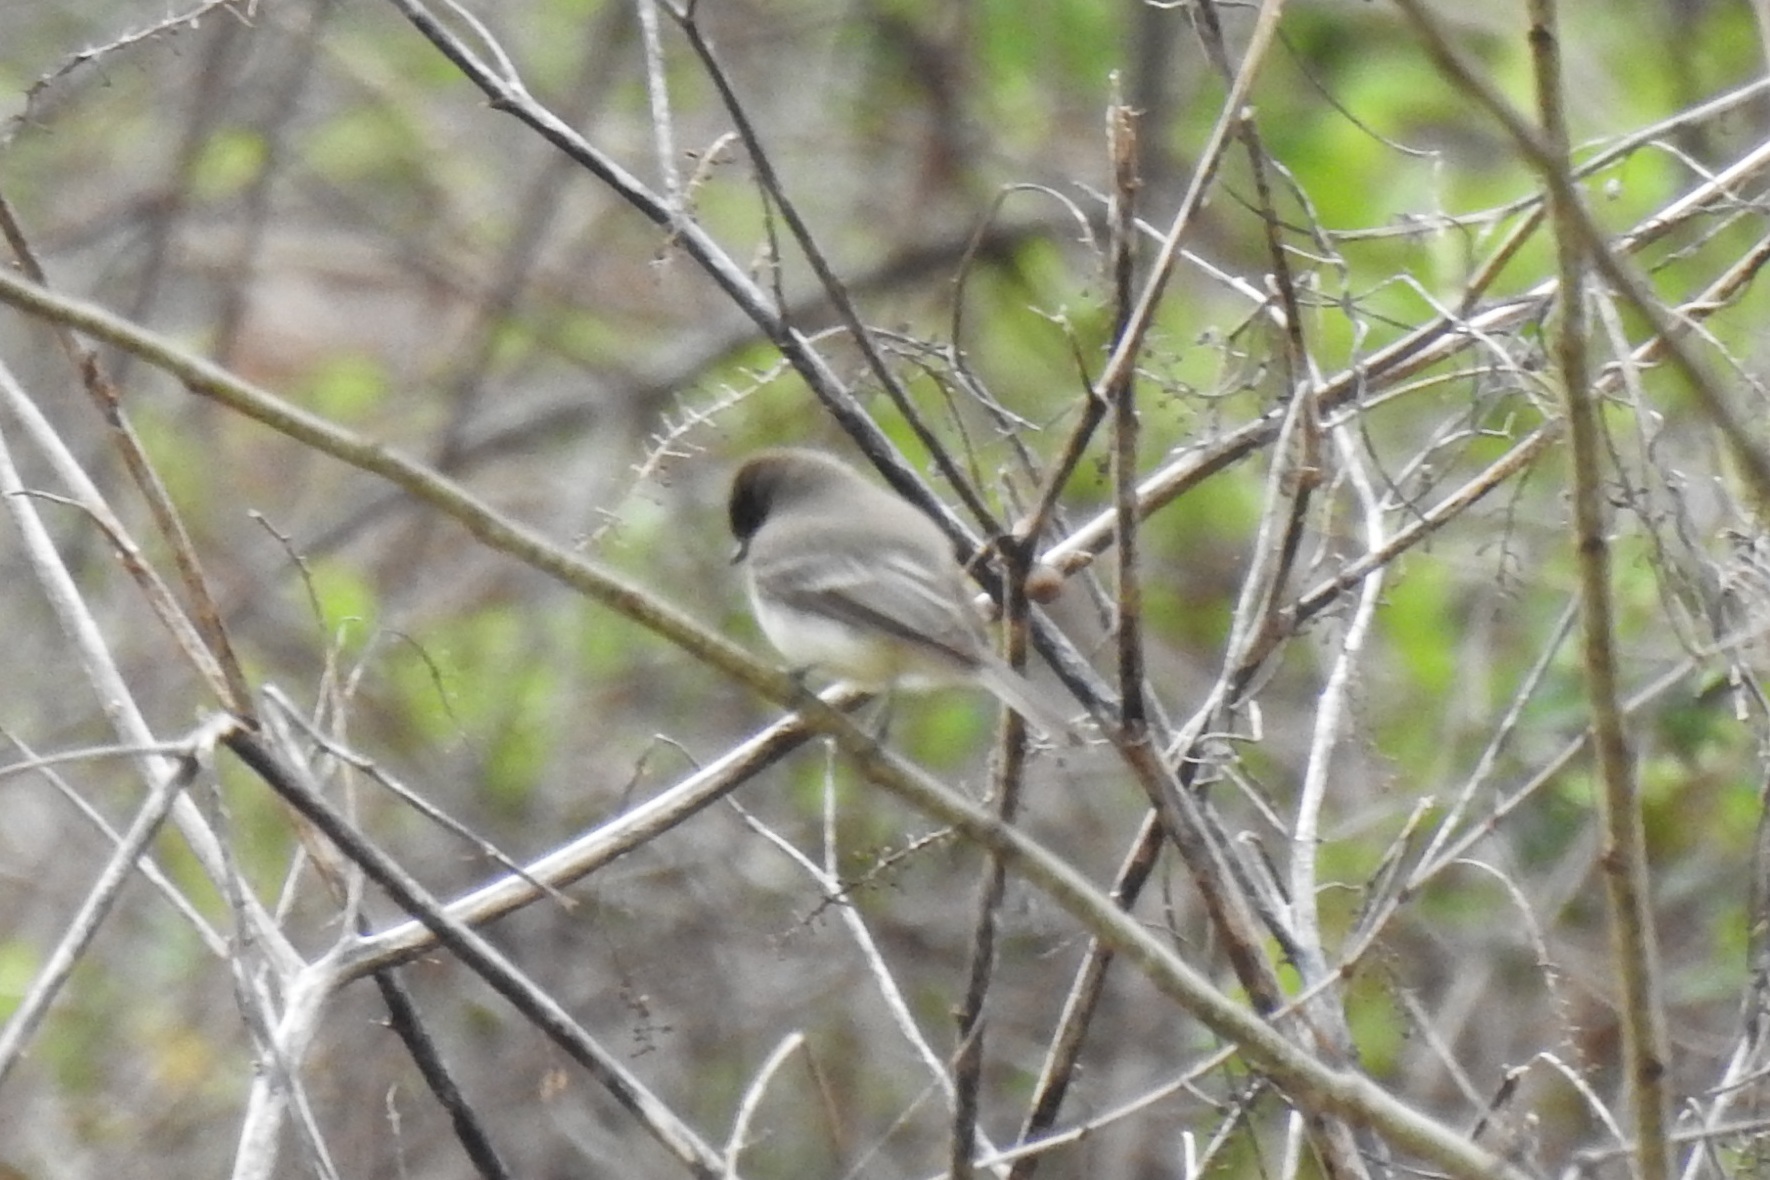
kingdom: Animalia
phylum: Chordata
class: Aves
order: Passeriformes
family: Tyrannidae
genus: Sayornis
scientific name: Sayornis phoebe
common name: Eastern phoebe
